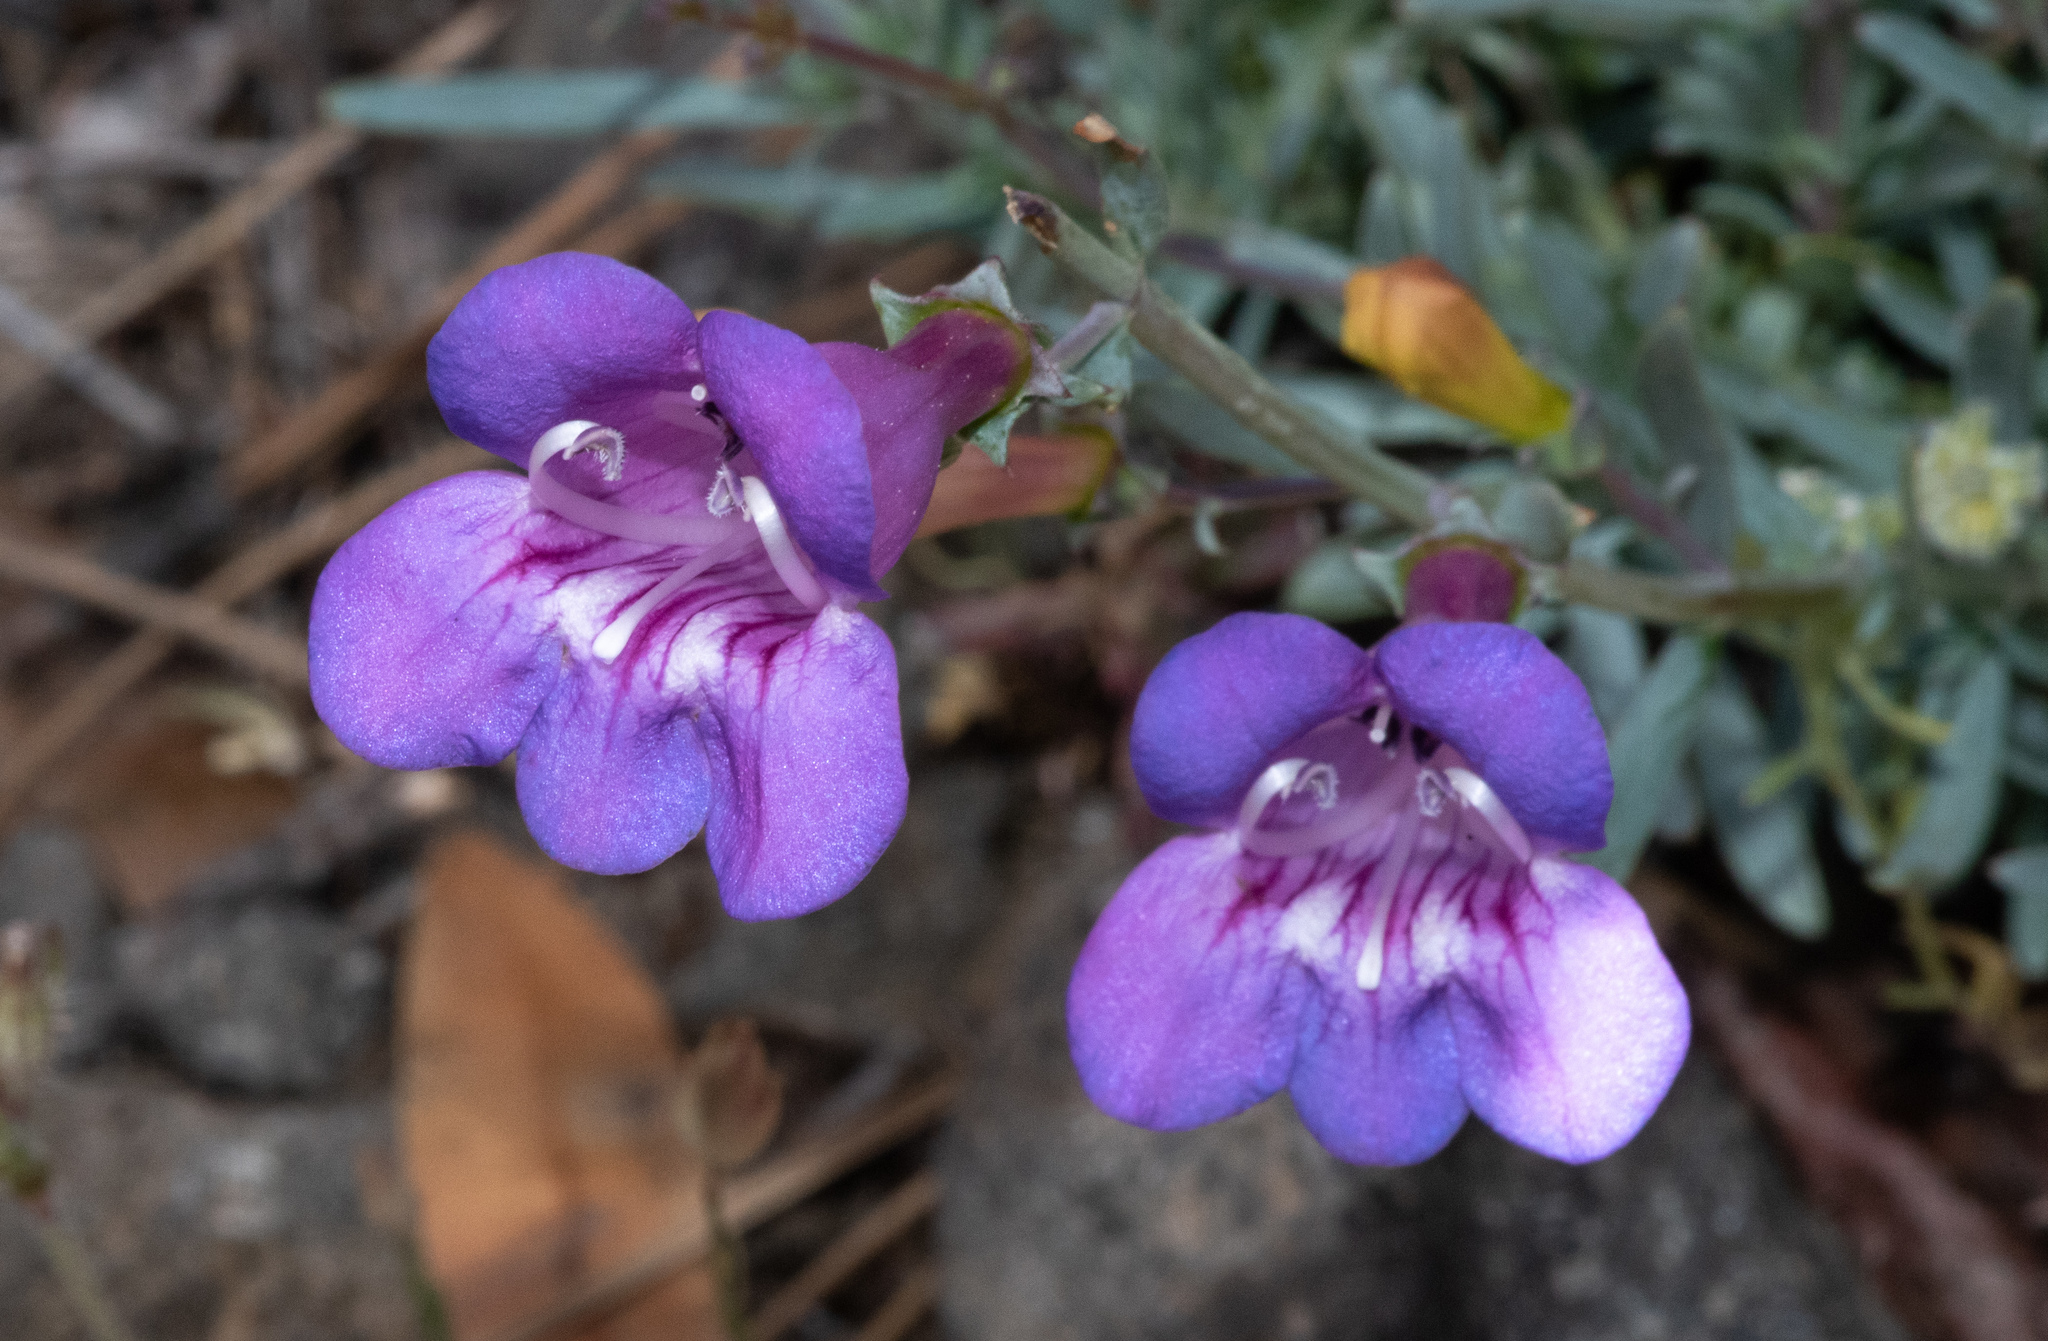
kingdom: Plantae
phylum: Tracheophyta
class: Magnoliopsida
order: Lamiales
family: Plantaginaceae
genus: Penstemon
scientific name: Penstemon heterophyllus
